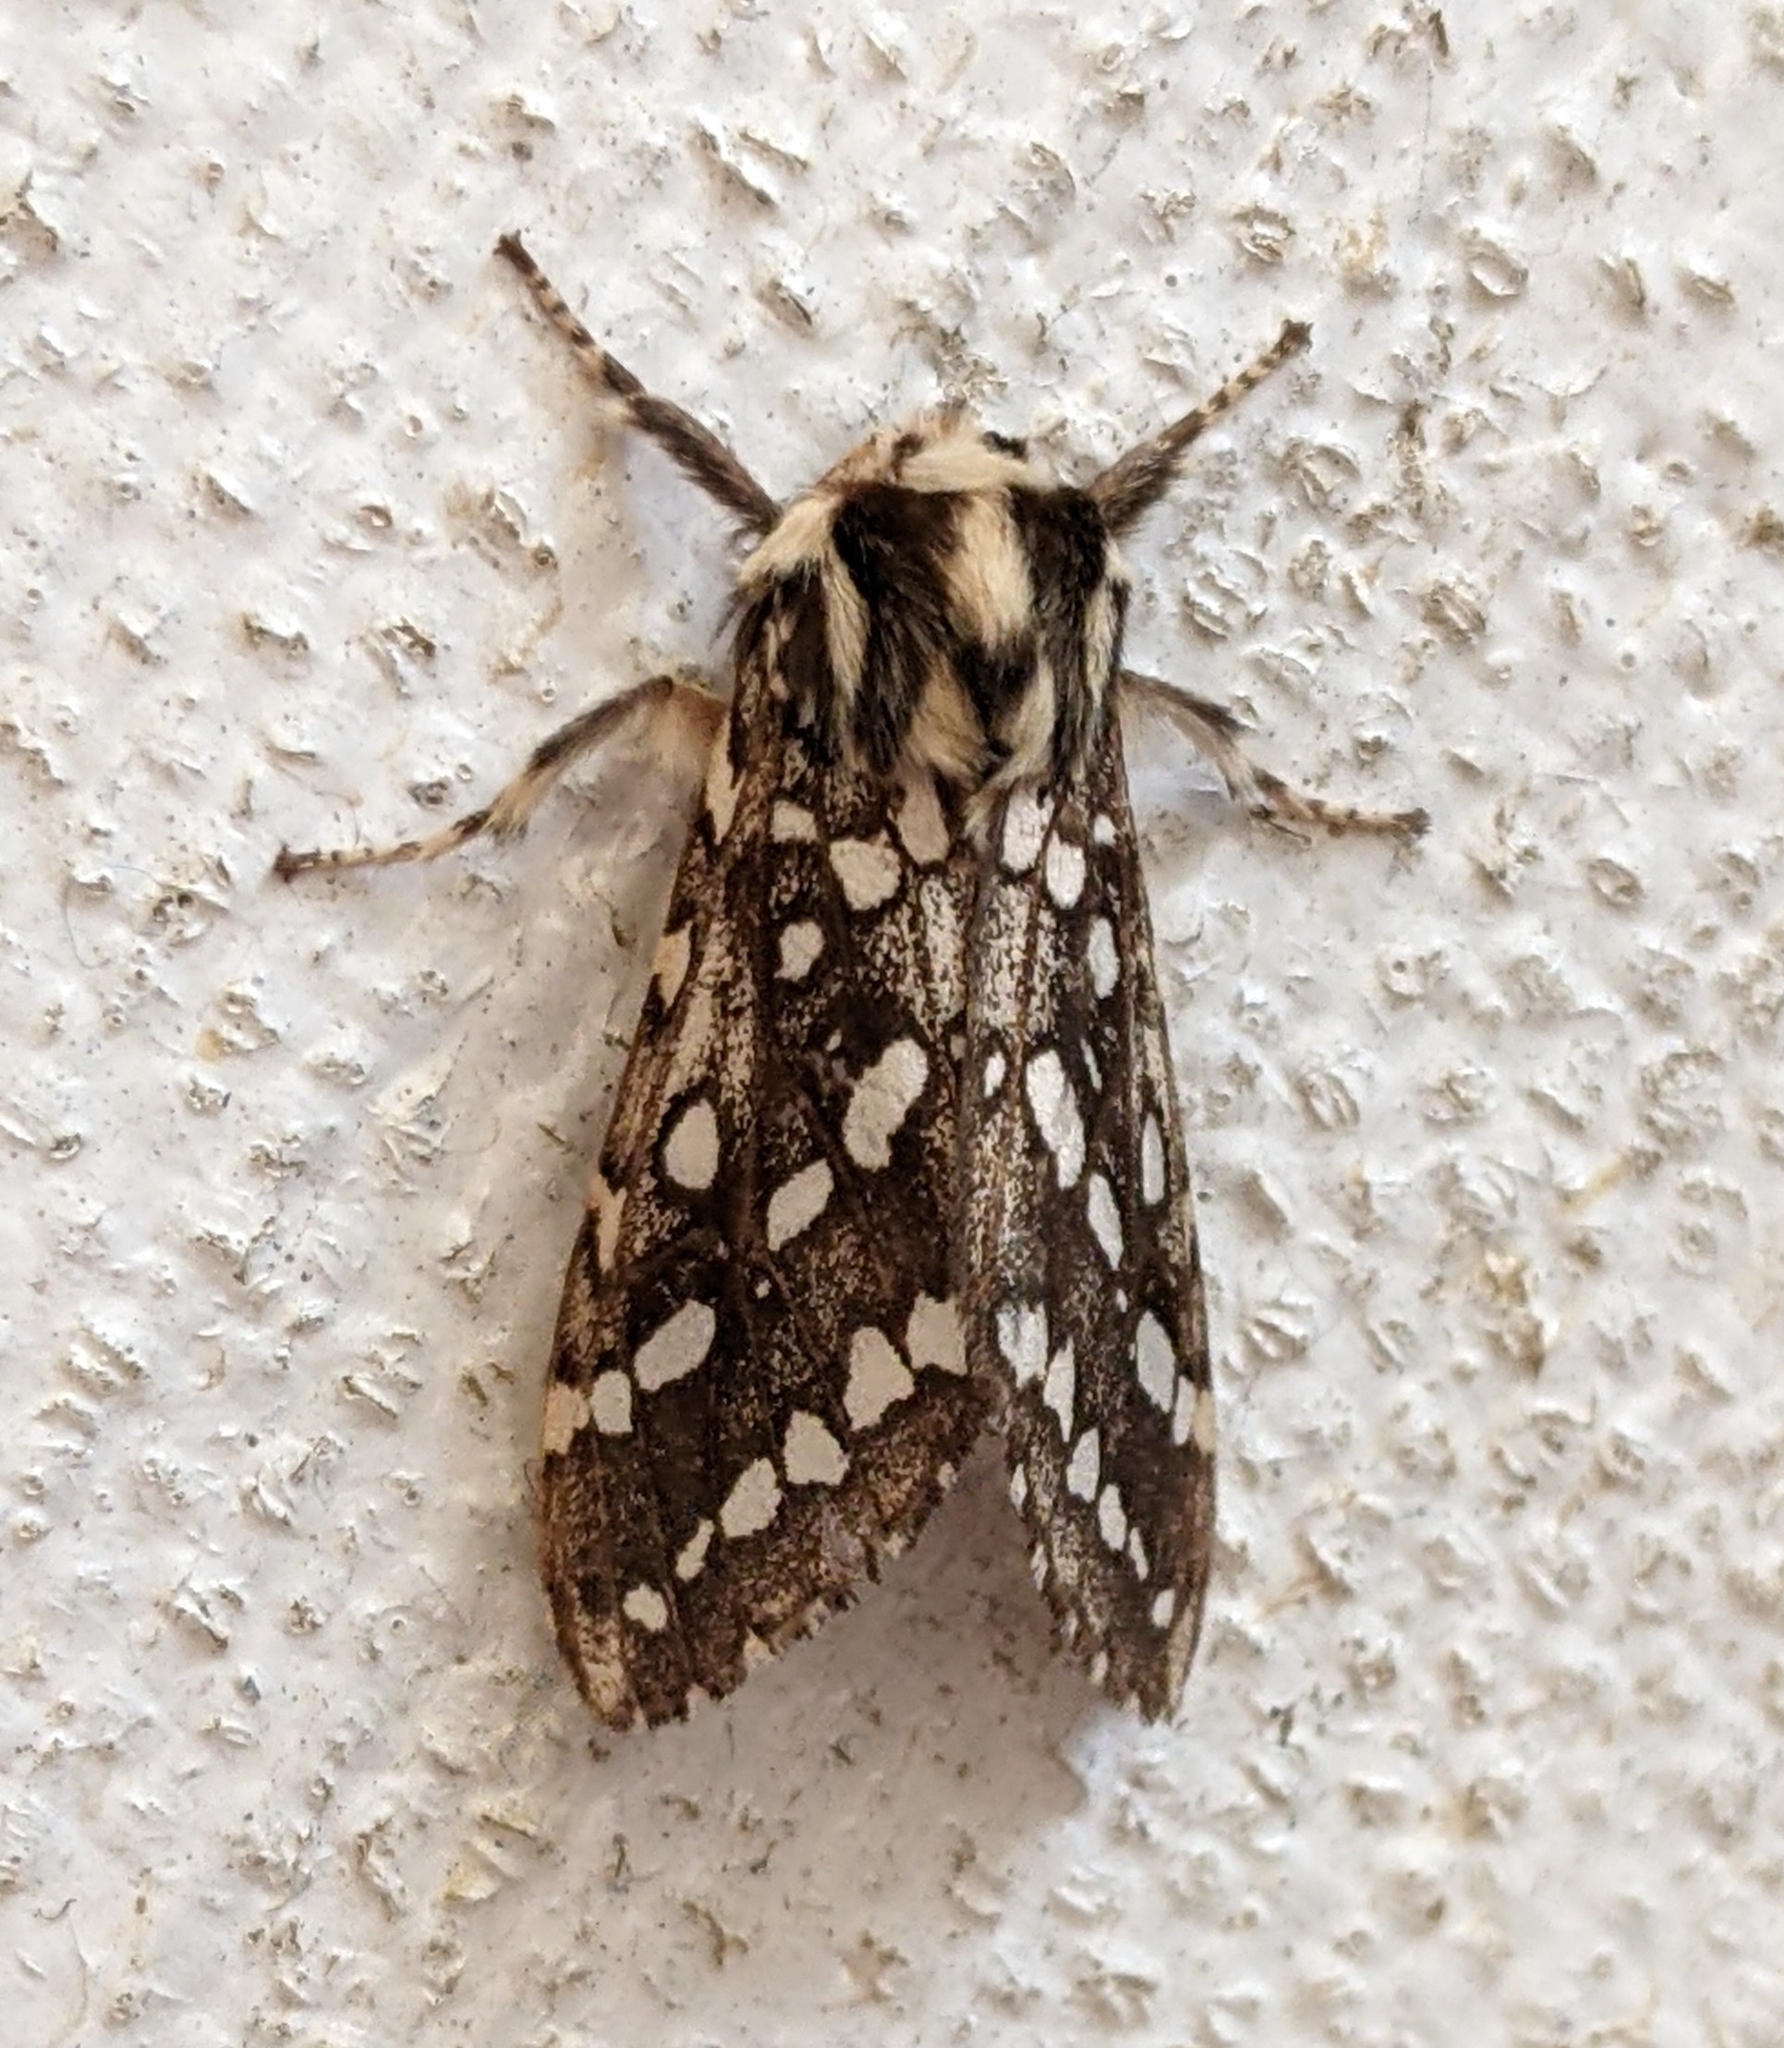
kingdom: Animalia
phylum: Arthropoda
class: Insecta
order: Lepidoptera
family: Erebidae
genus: Lophocampa
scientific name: Lophocampa argentata
